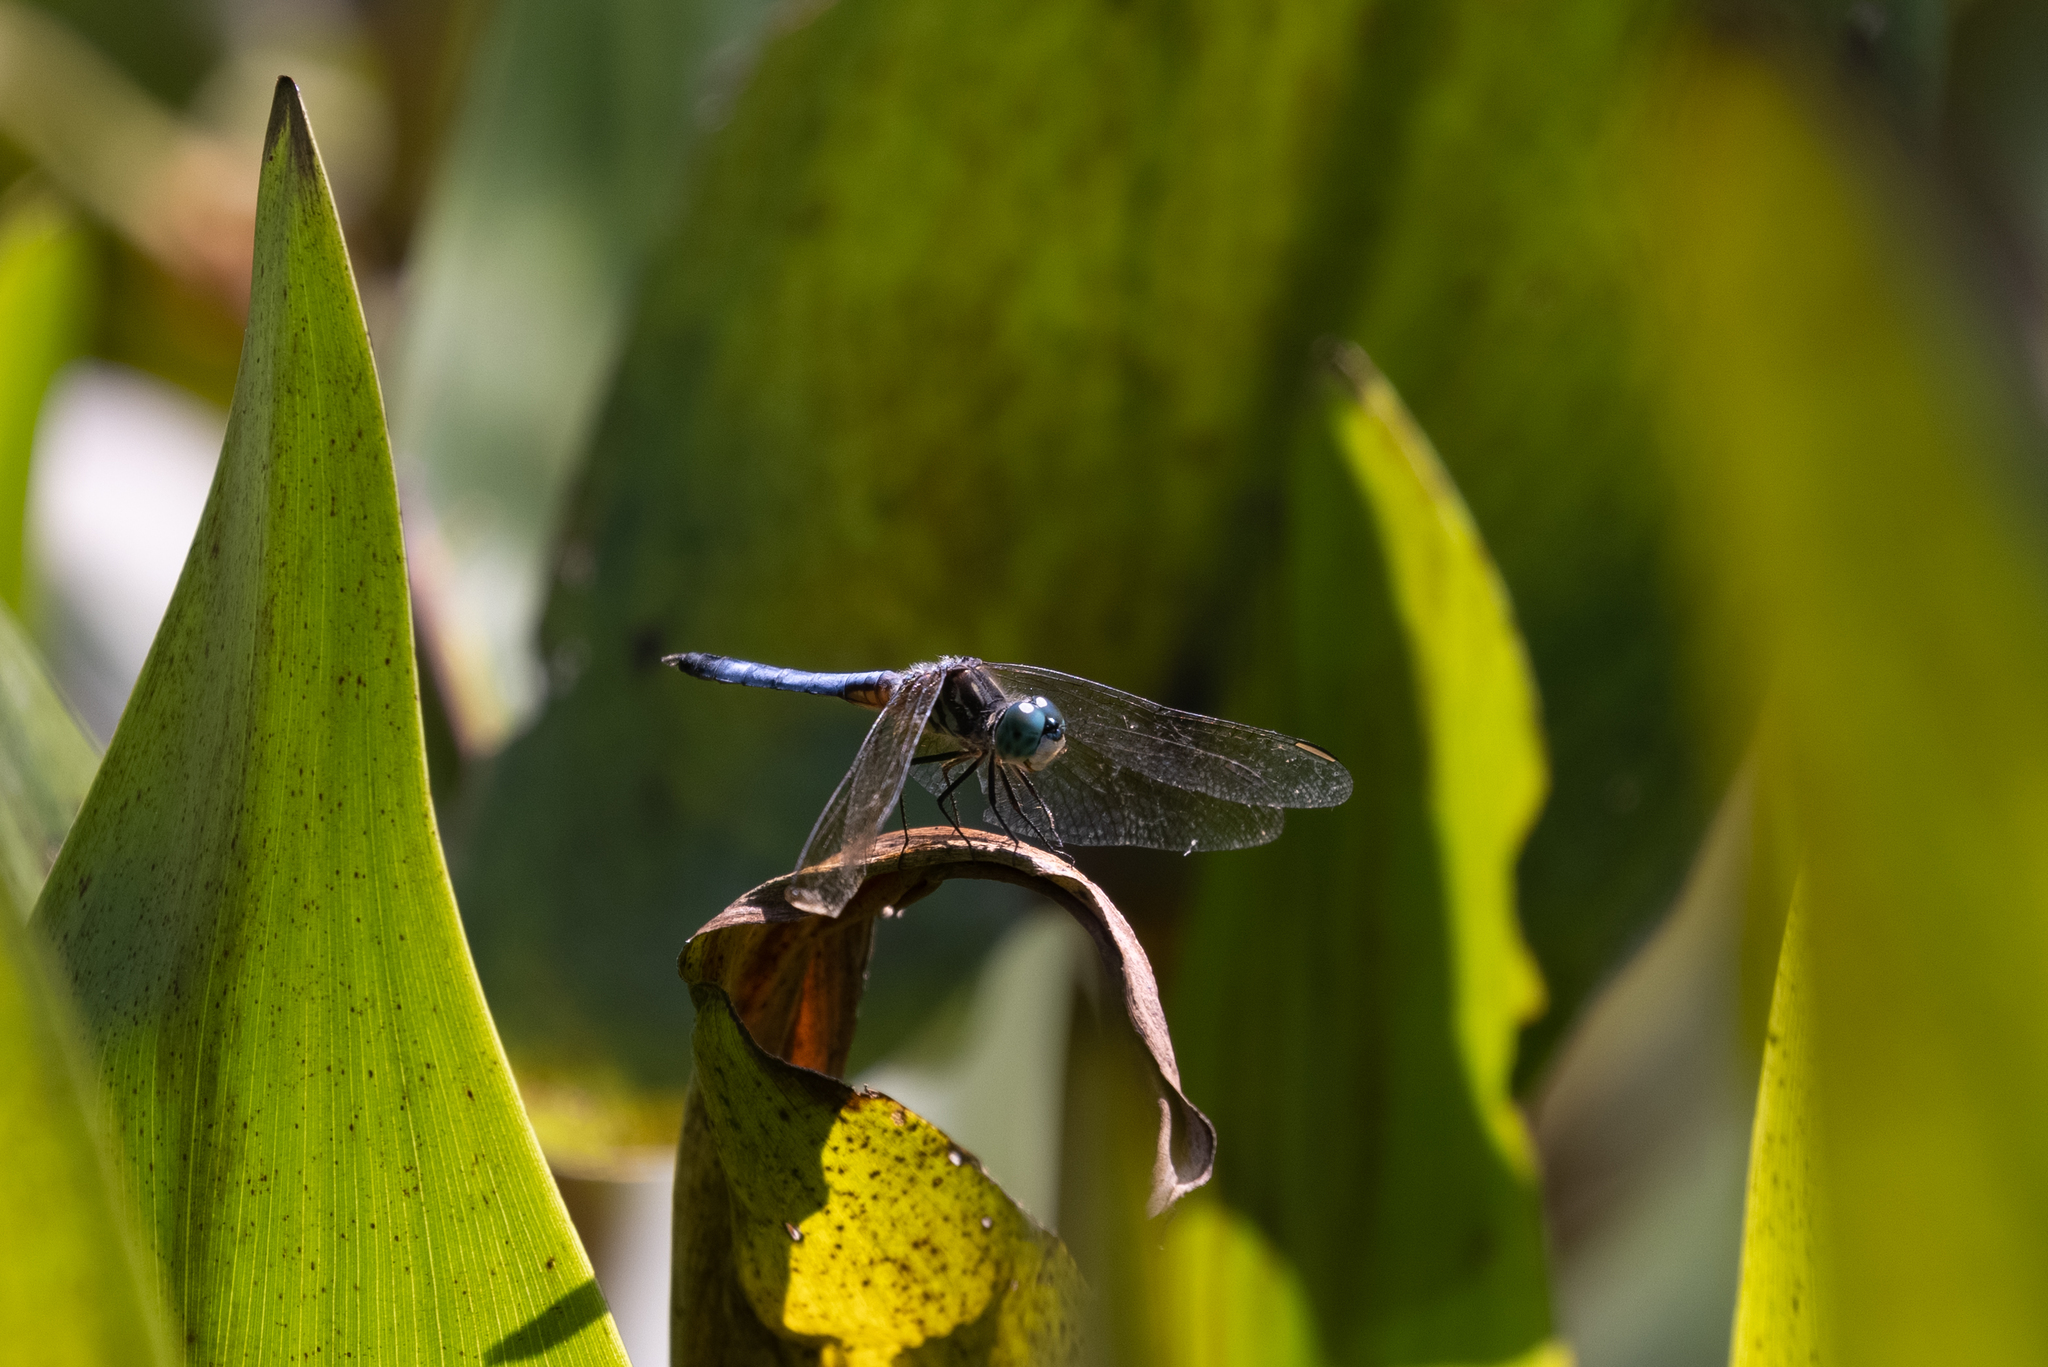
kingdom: Animalia
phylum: Arthropoda
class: Insecta
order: Odonata
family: Libellulidae
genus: Pachydiplax
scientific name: Pachydiplax longipennis
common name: Blue dasher
